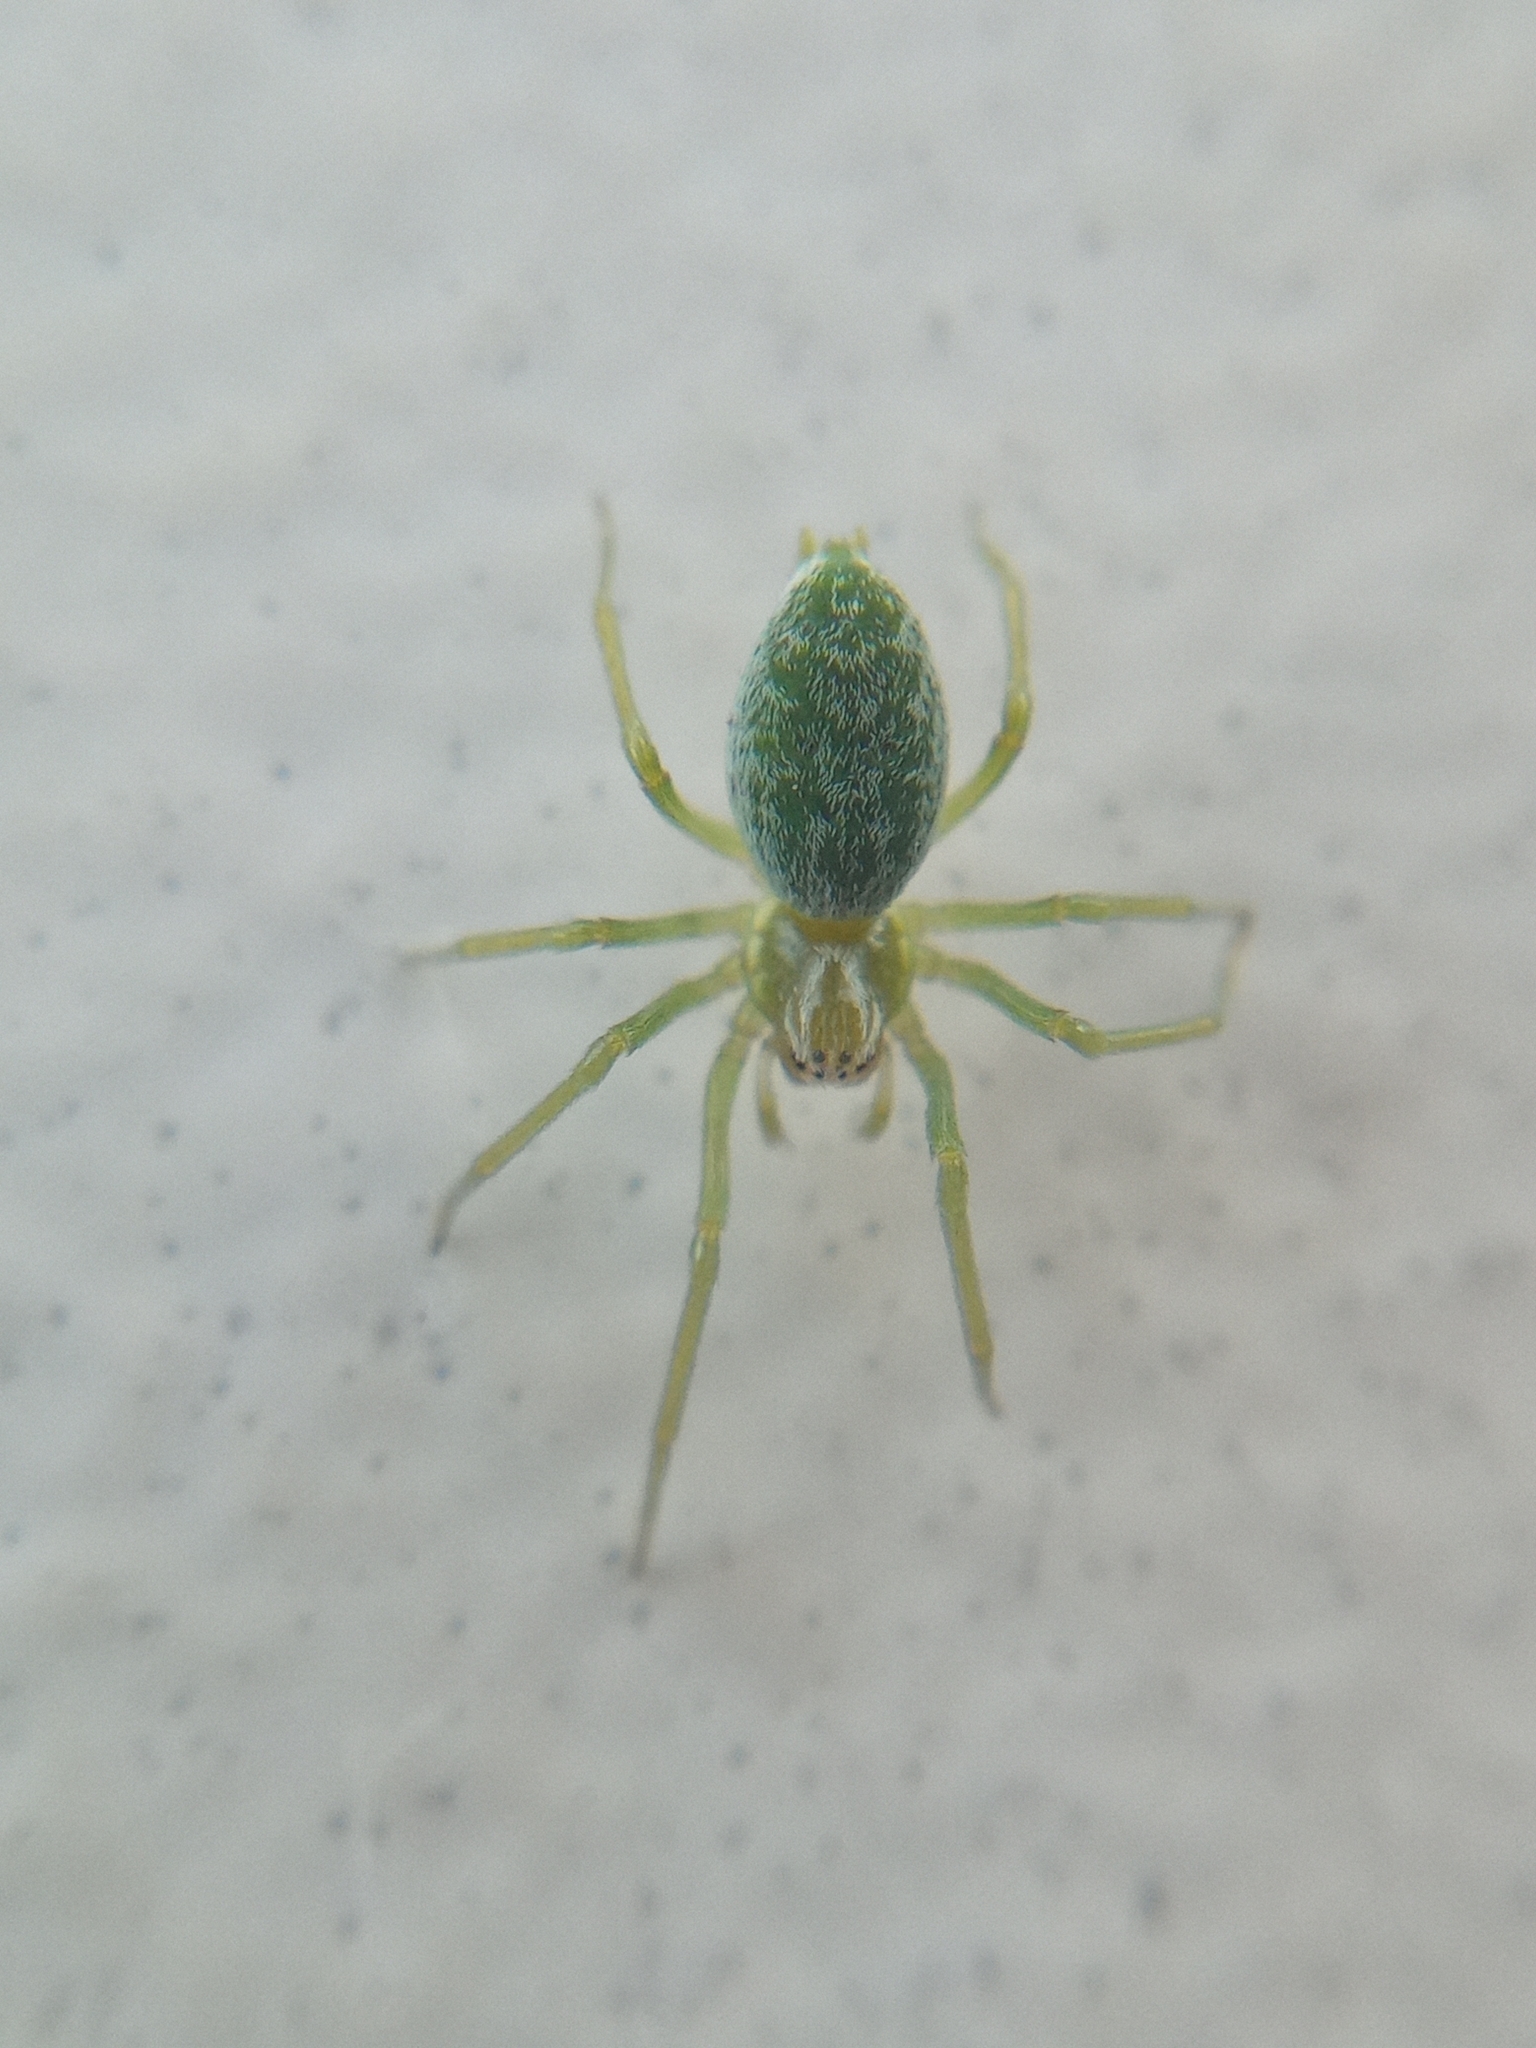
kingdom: Animalia
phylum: Arthropoda
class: Arachnida
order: Araneae
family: Dictynidae
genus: Nigma
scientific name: Nigma walckenaeri
